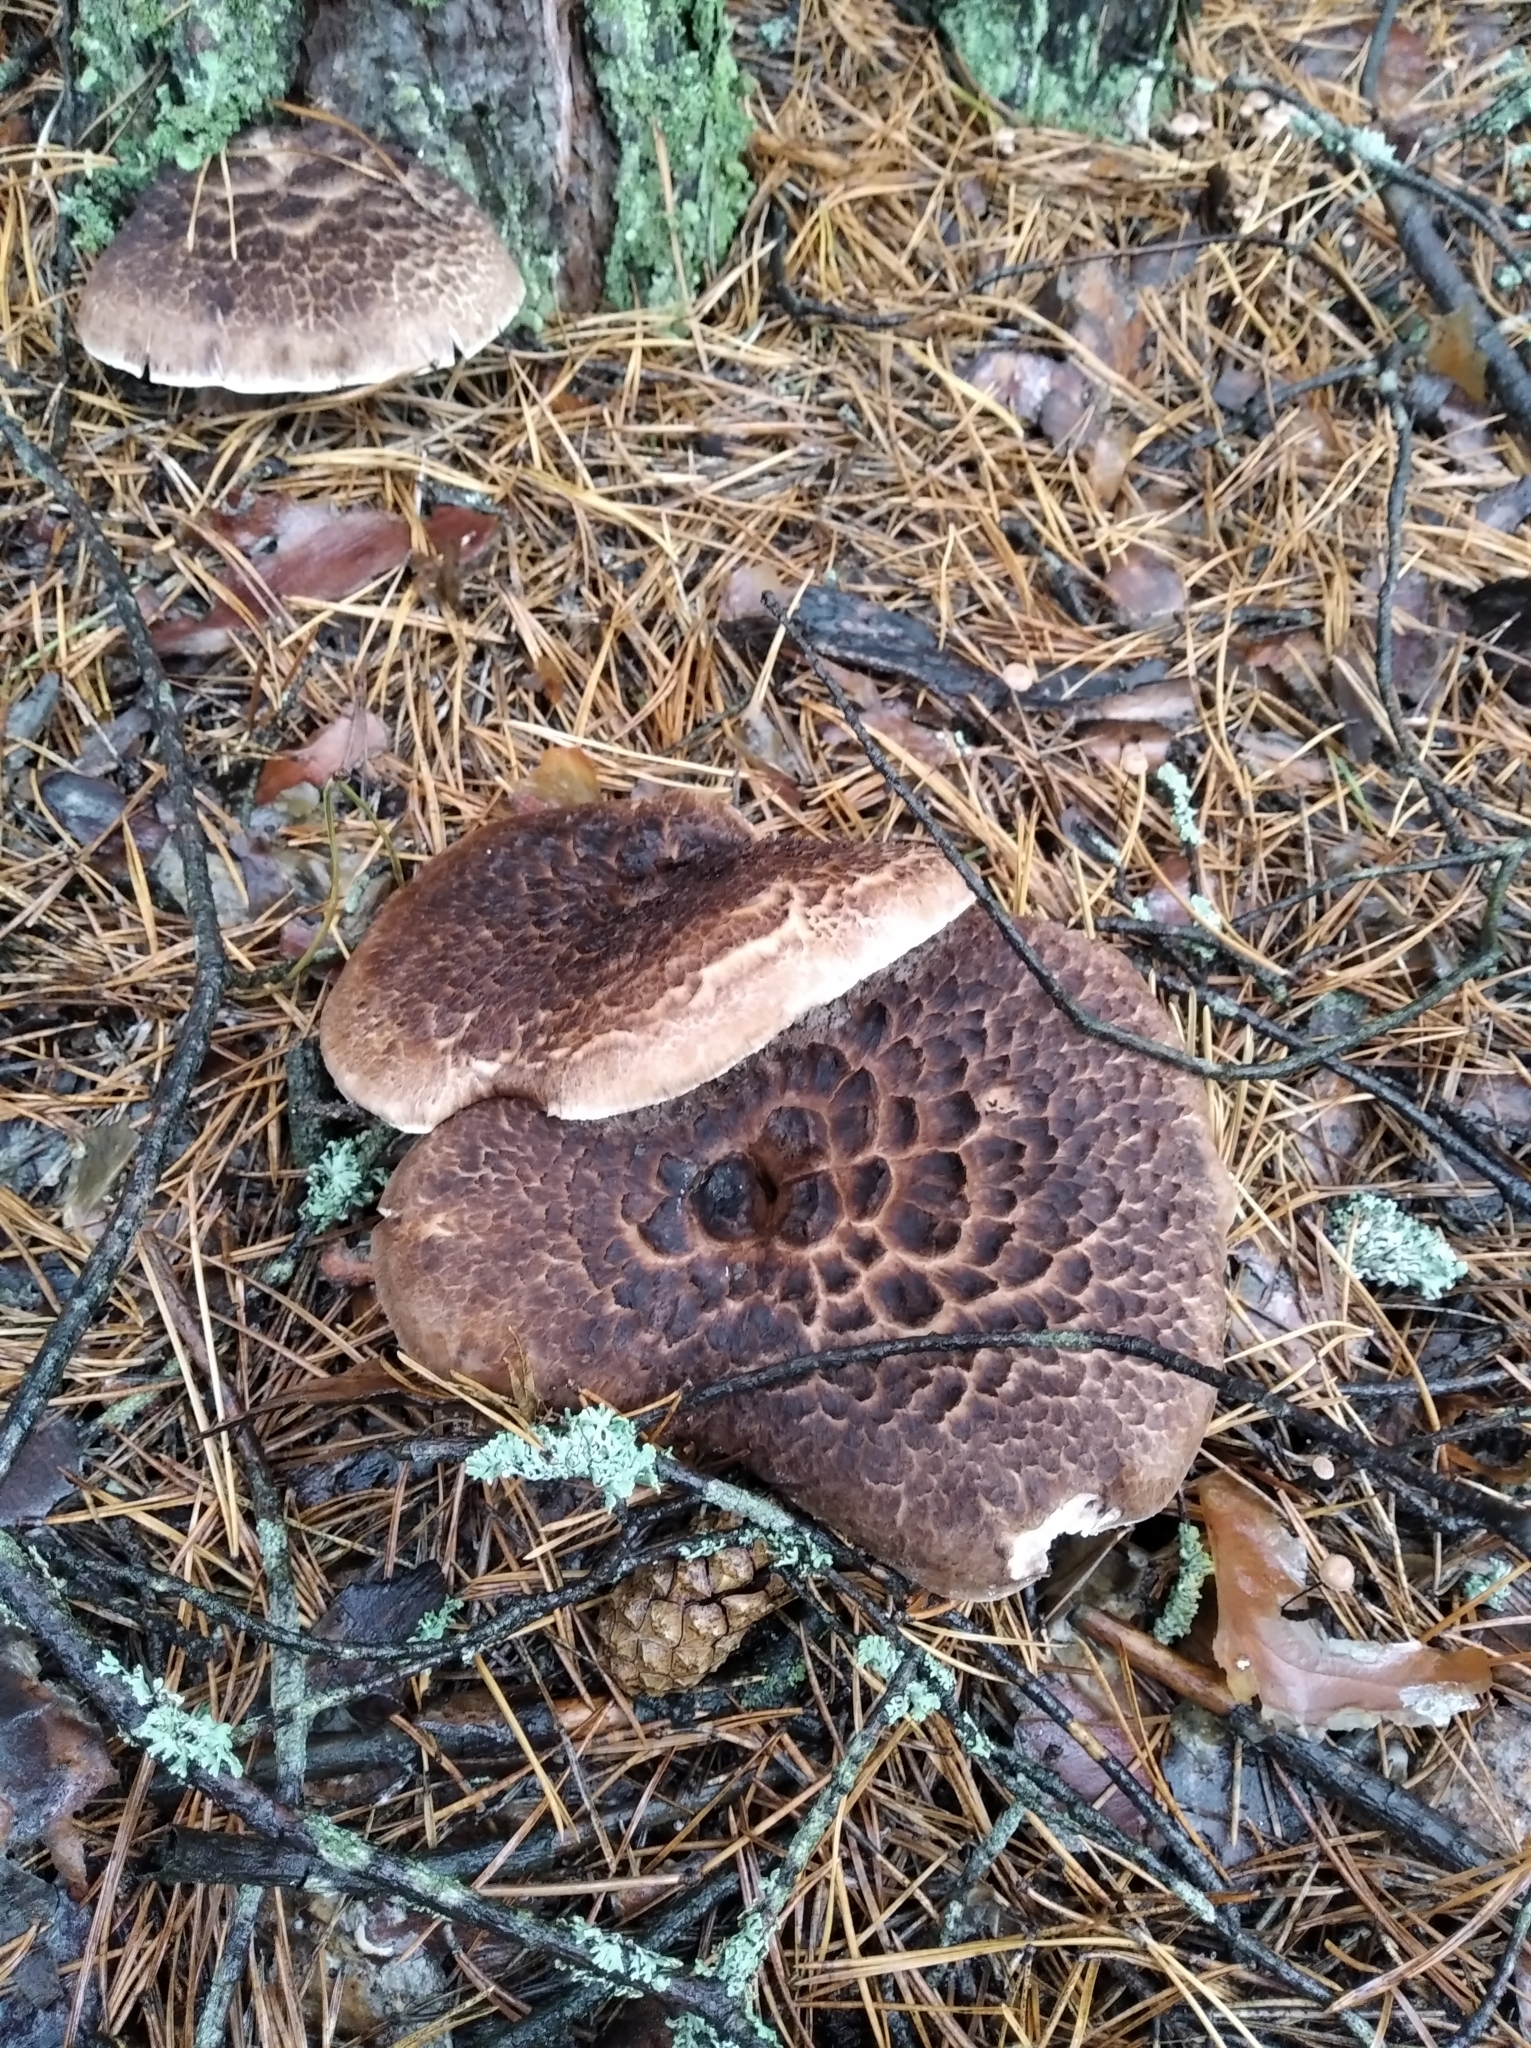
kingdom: Fungi
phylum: Basidiomycota
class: Agaricomycetes
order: Thelephorales
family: Bankeraceae
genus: Sarcodon
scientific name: Sarcodon imbricatus
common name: Shingled hedgehog
